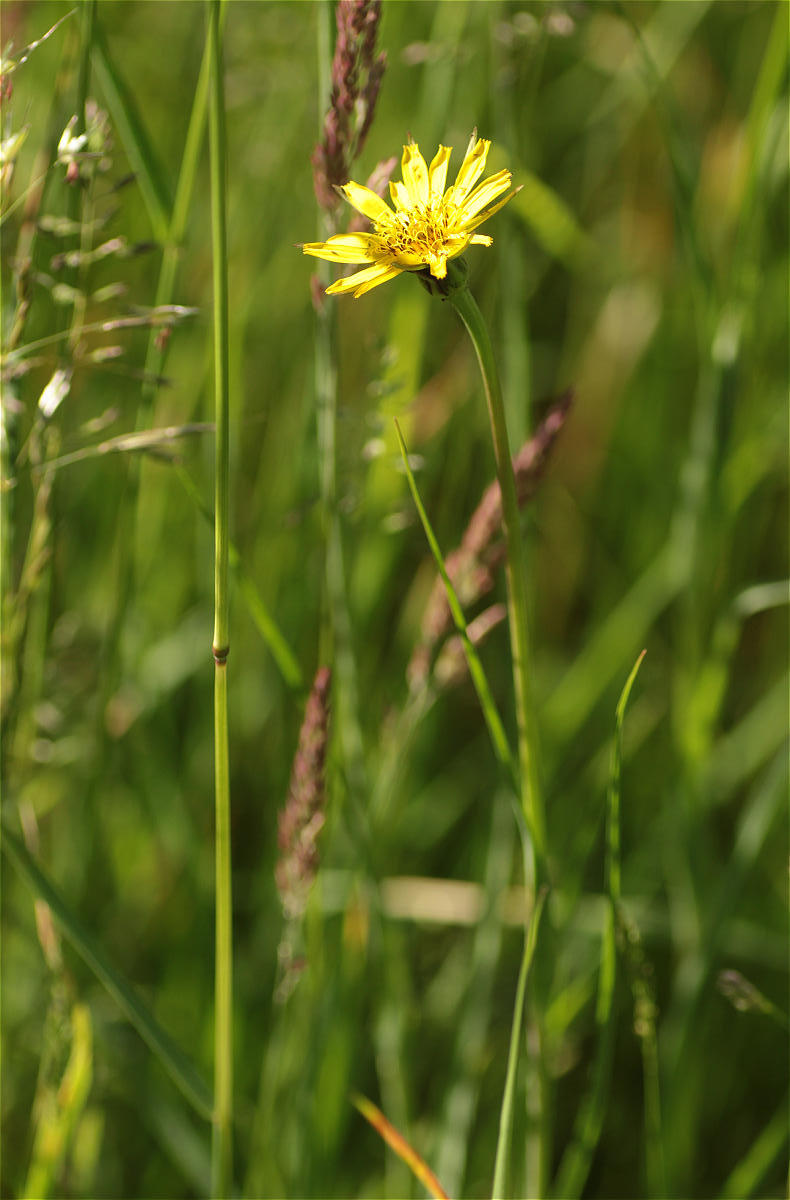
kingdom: Plantae
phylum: Tracheophyta
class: Magnoliopsida
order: Asterales
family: Asteraceae
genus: Tragopogon
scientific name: Tragopogon pratensis
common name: Goat's-beard
